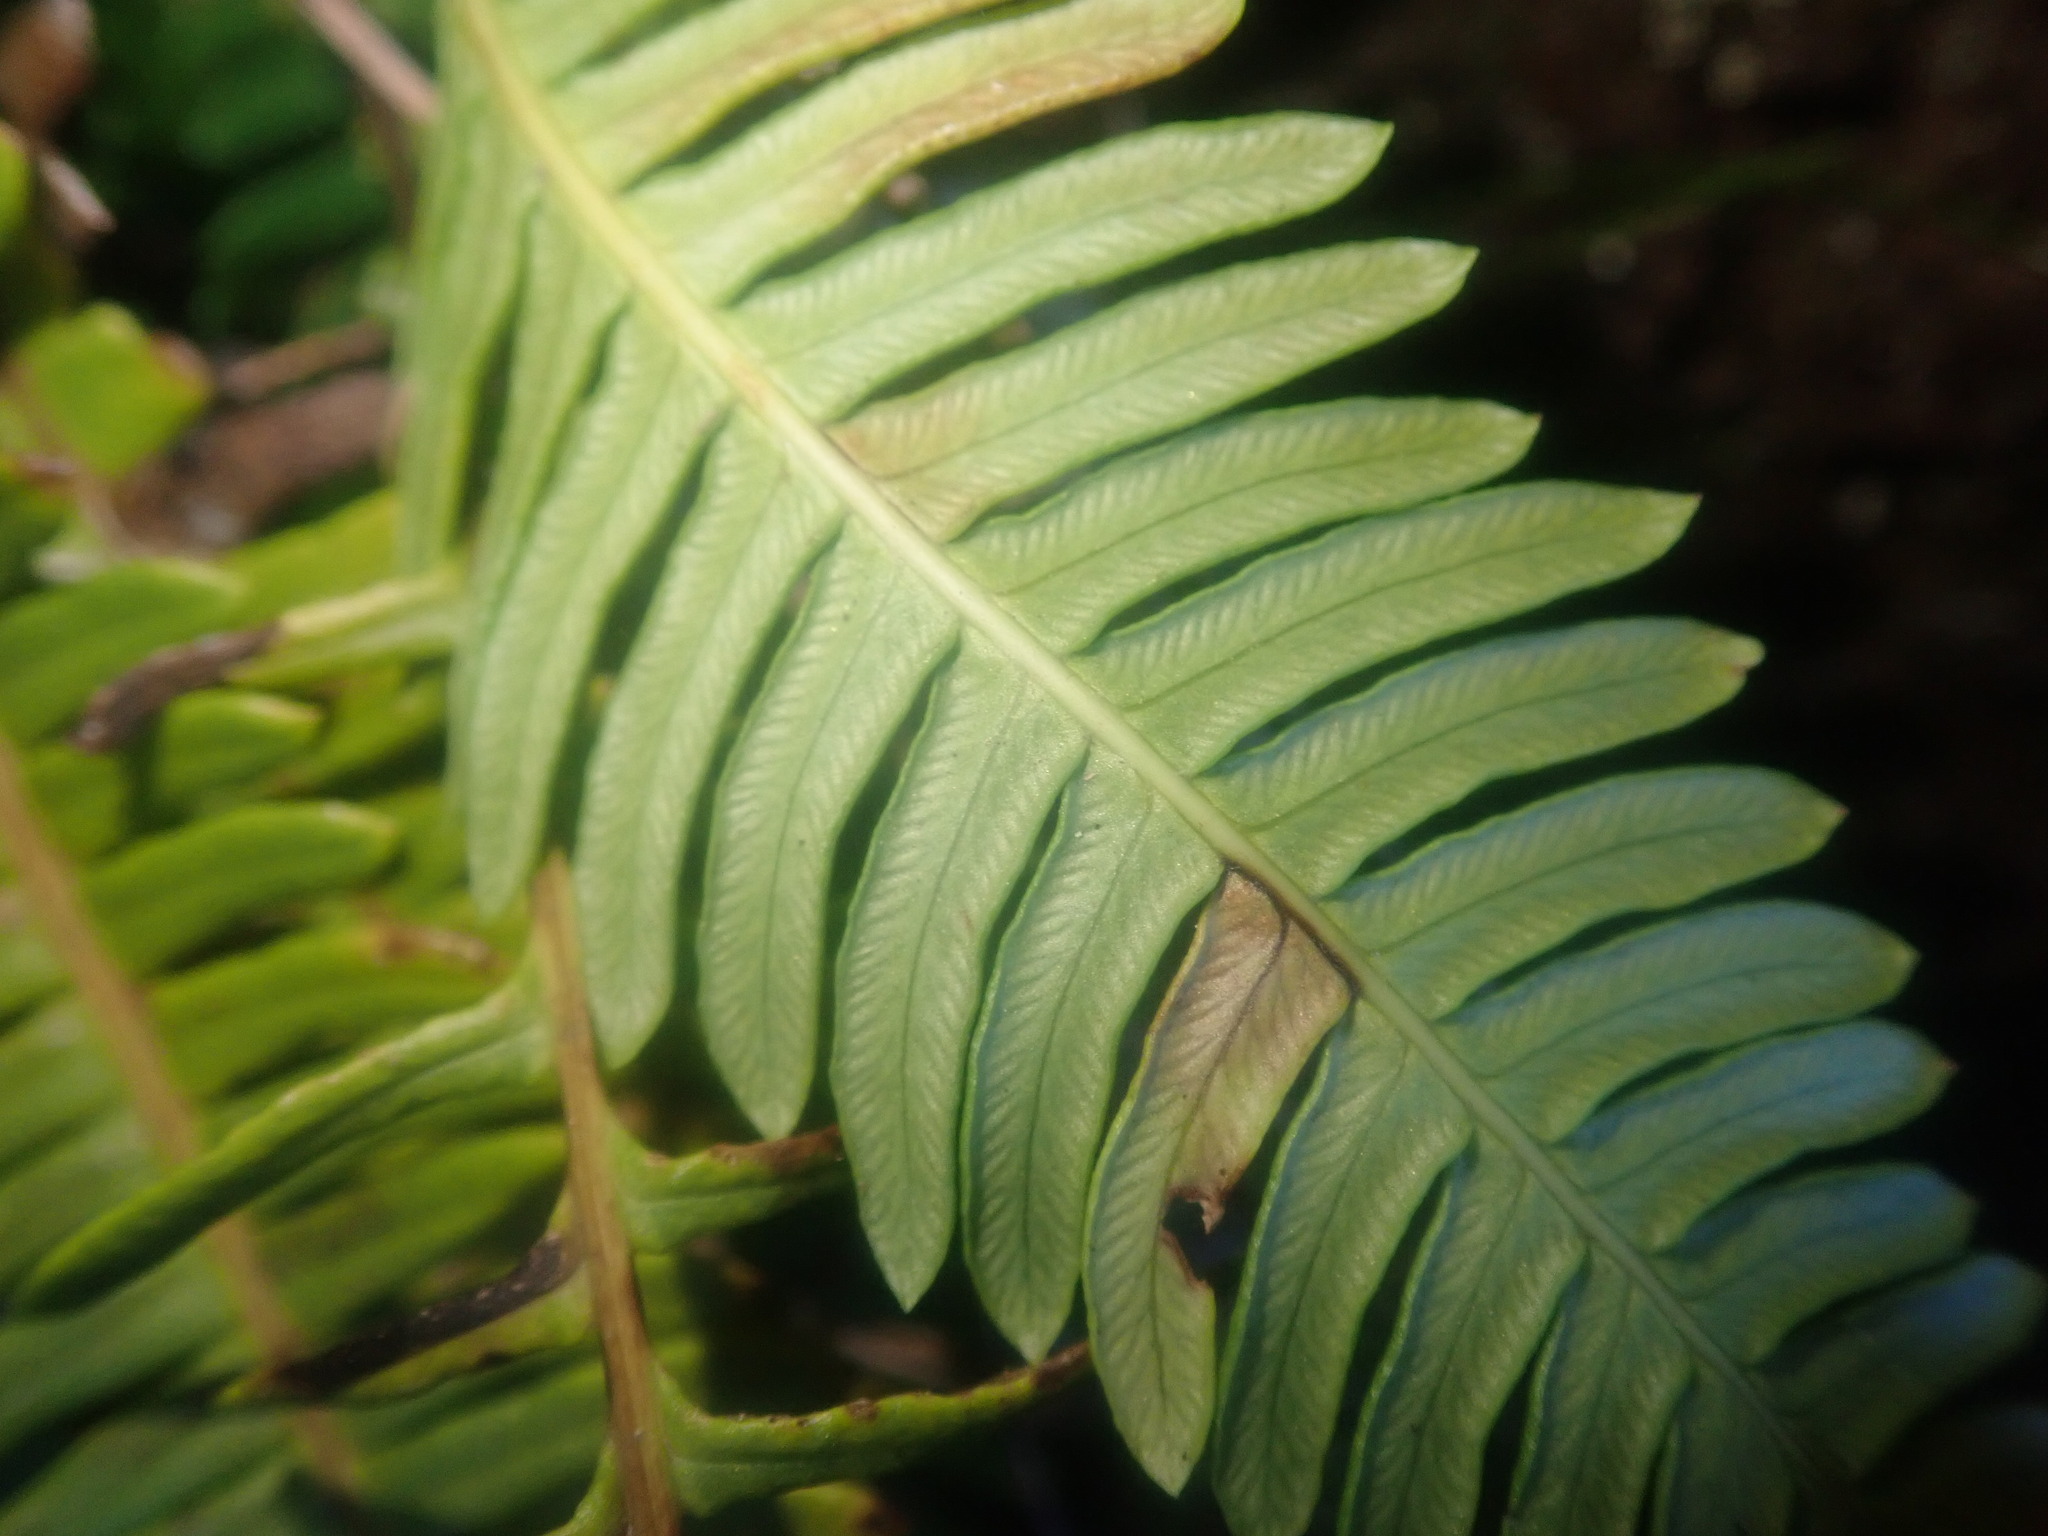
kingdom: Plantae
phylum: Tracheophyta
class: Polypodiopsida
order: Polypodiales
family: Blechnaceae
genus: Struthiopteris
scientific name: Struthiopteris spicant
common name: Deer fern
